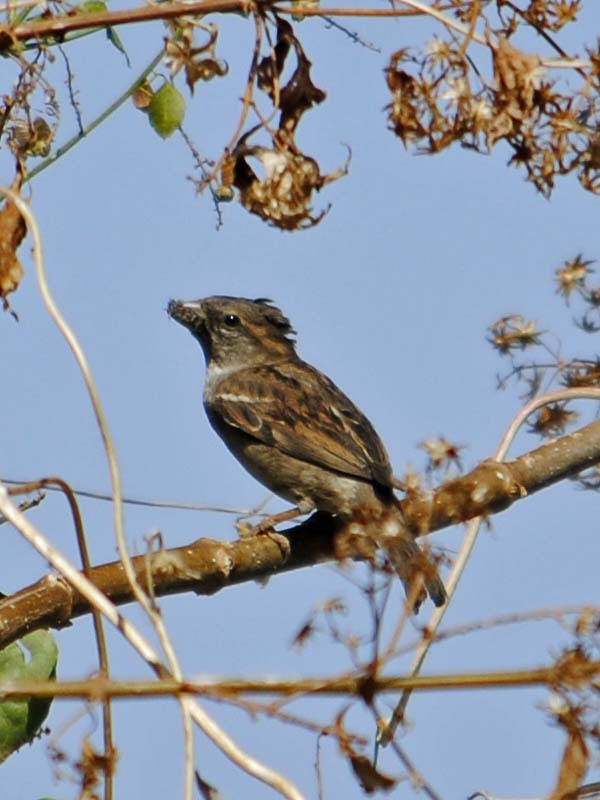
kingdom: Animalia
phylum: Chordata
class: Aves
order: Passeriformes
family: Passeridae
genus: Passer
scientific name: Passer domesticus
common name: House sparrow
